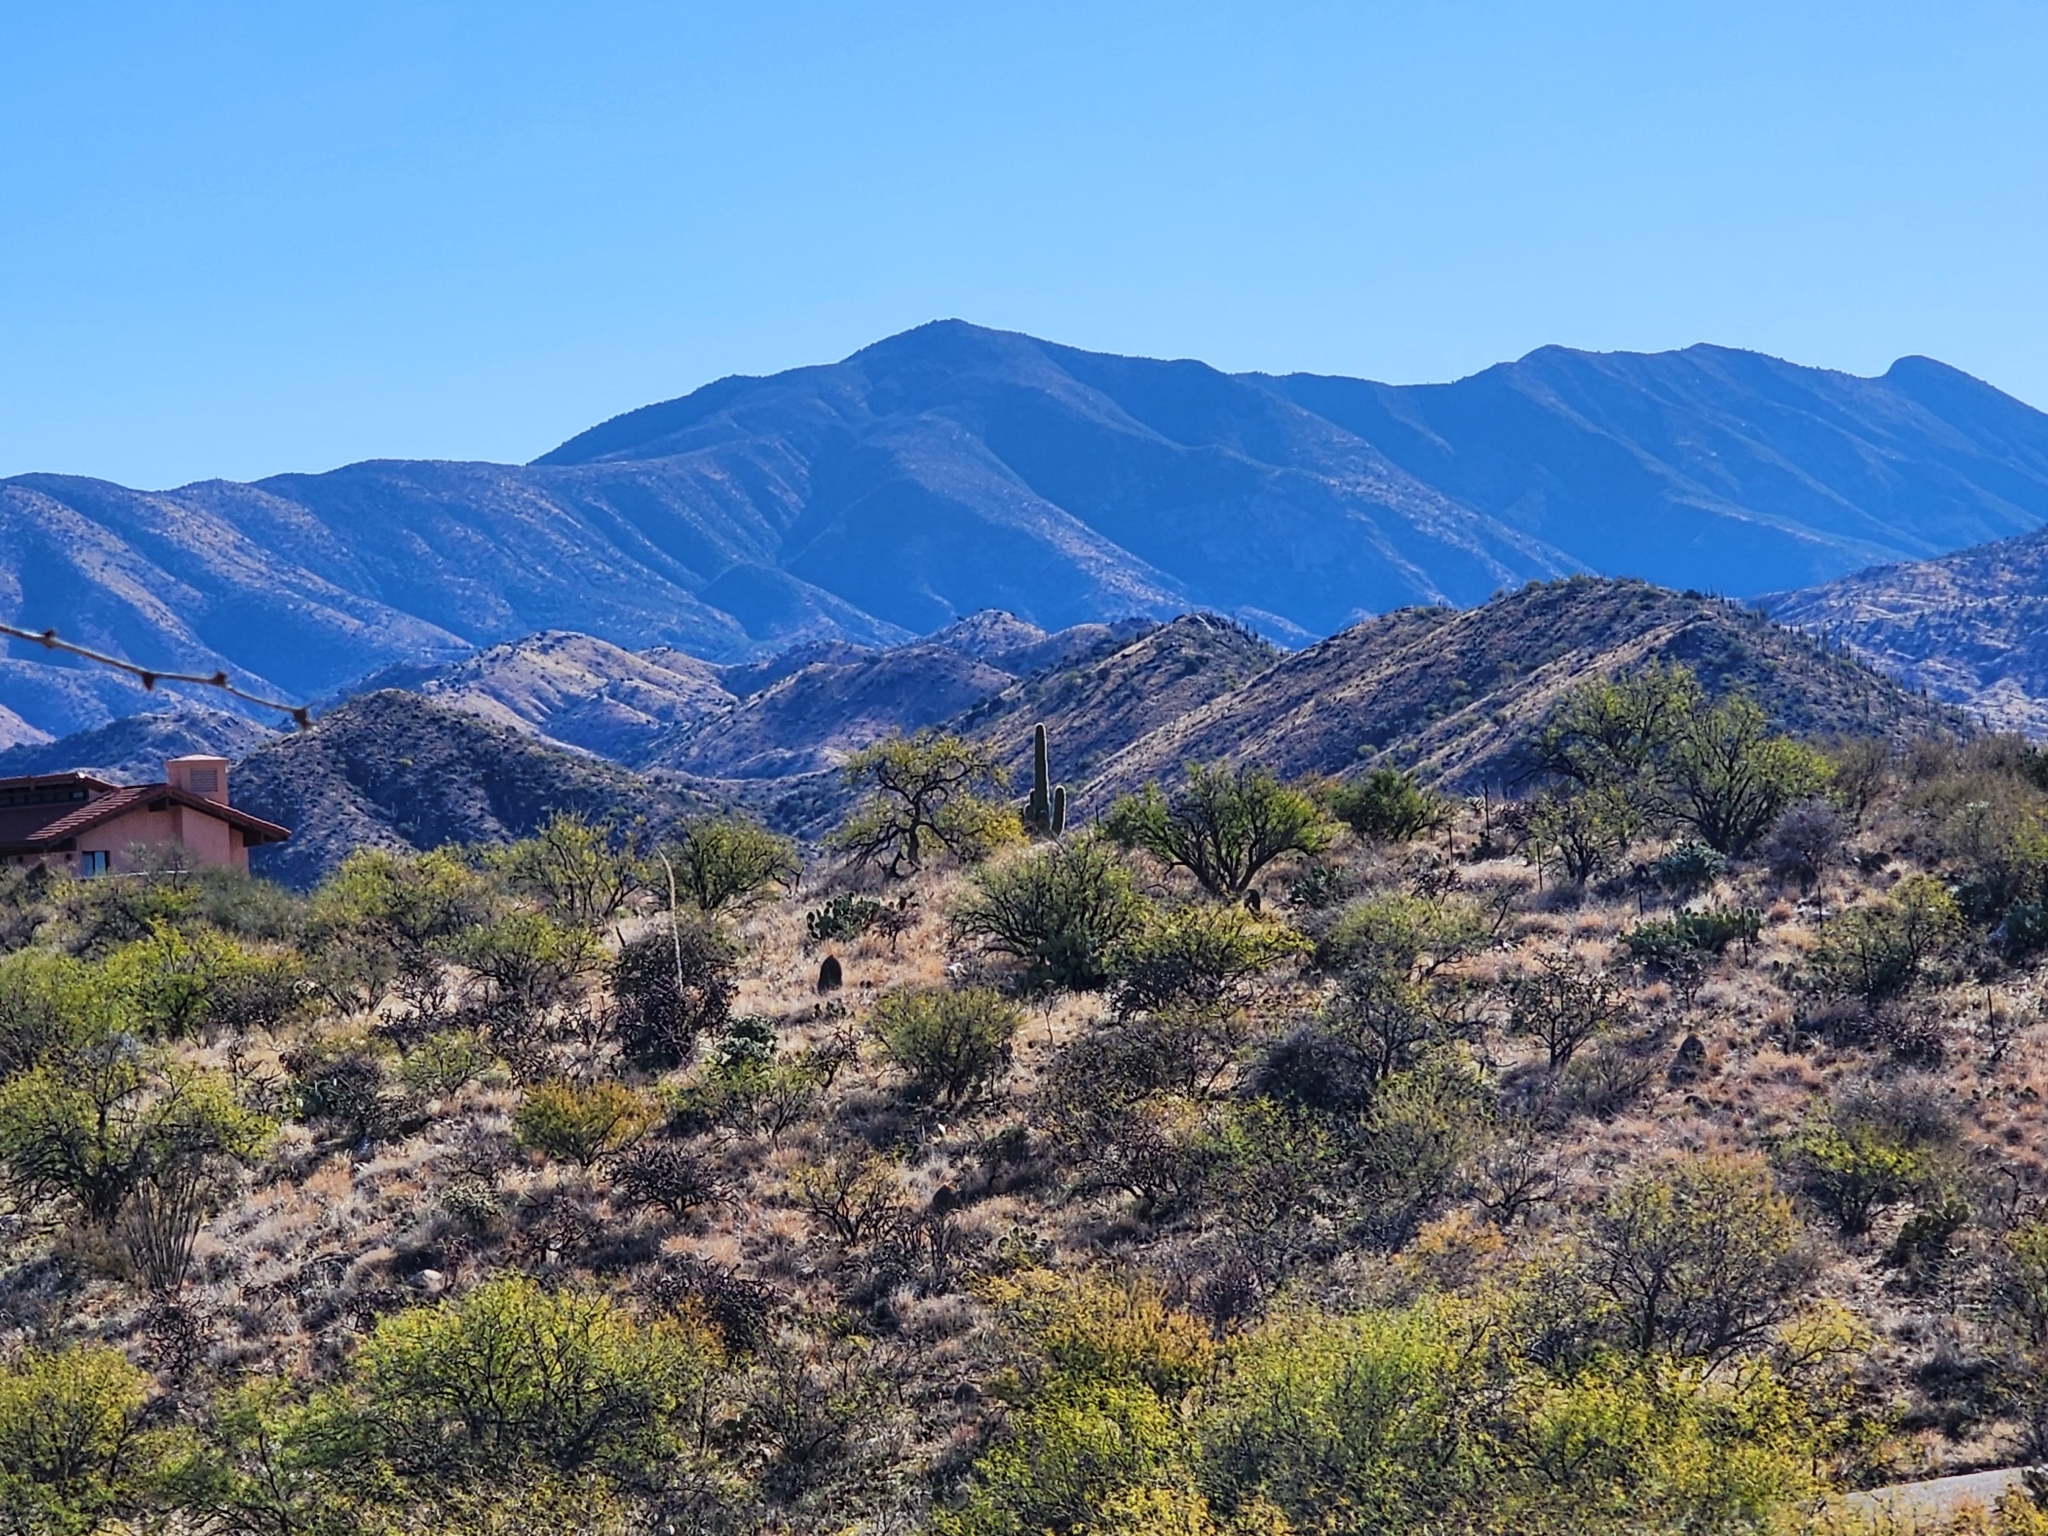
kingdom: Plantae
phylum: Tracheophyta
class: Magnoliopsida
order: Caryophyllales
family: Cactaceae
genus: Carnegiea
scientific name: Carnegiea gigantea
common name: Saguaro
